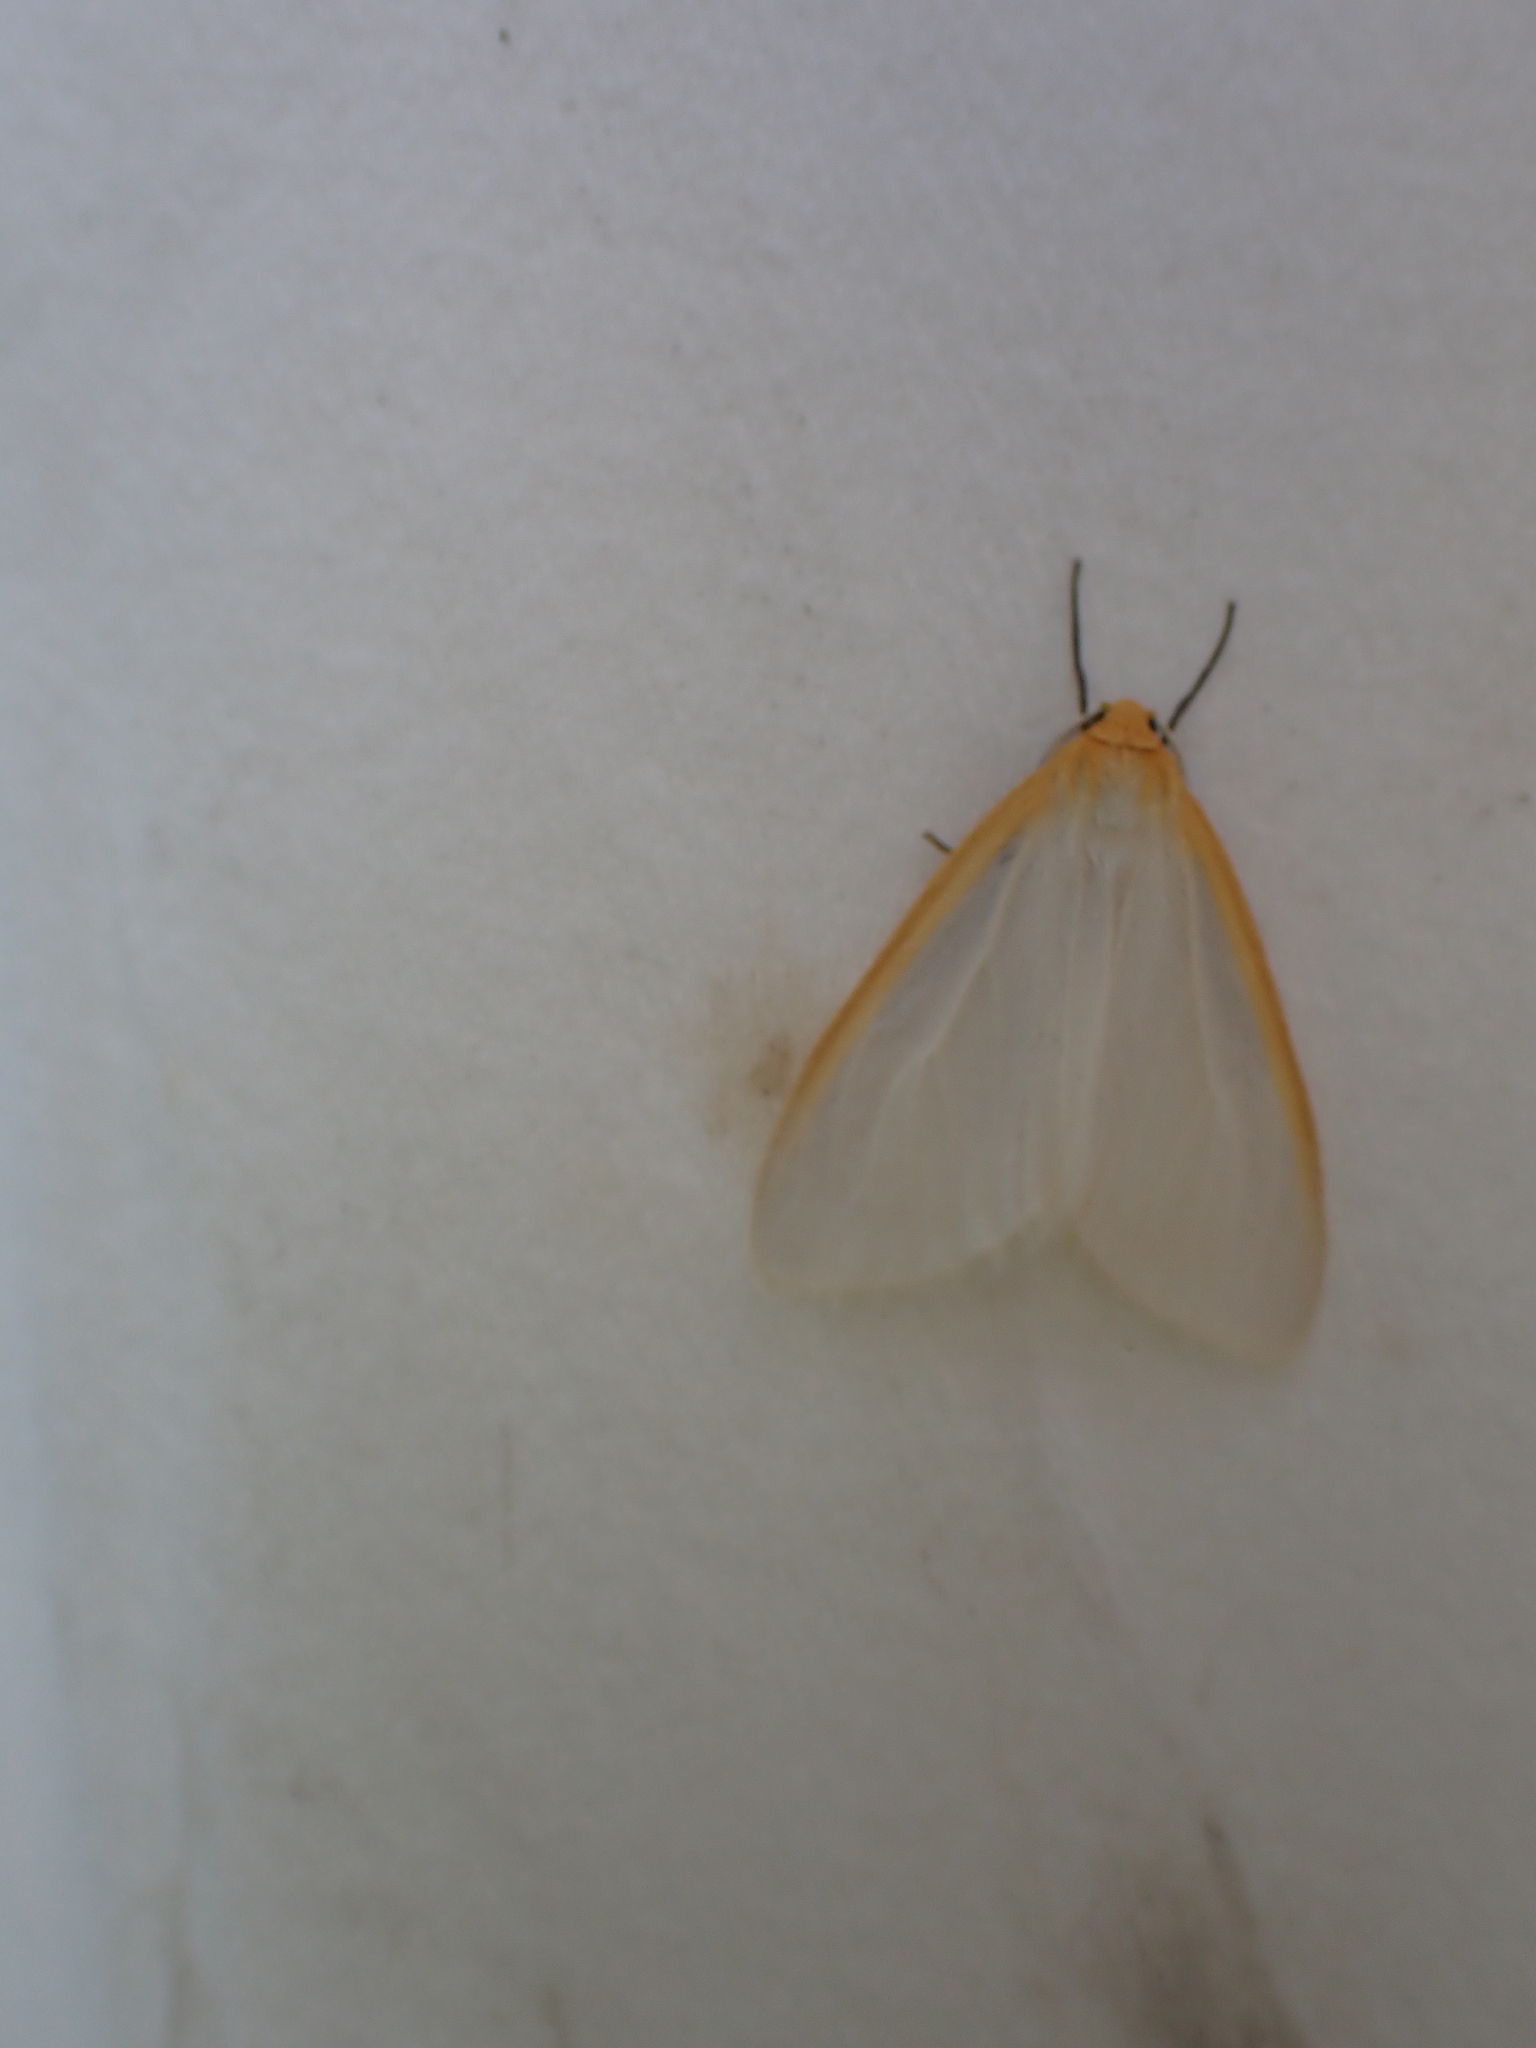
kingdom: Animalia
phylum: Arthropoda
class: Insecta
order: Lepidoptera
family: Erebidae
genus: Cycnia
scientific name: Cycnia tenera
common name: Delicate cycnia moth
